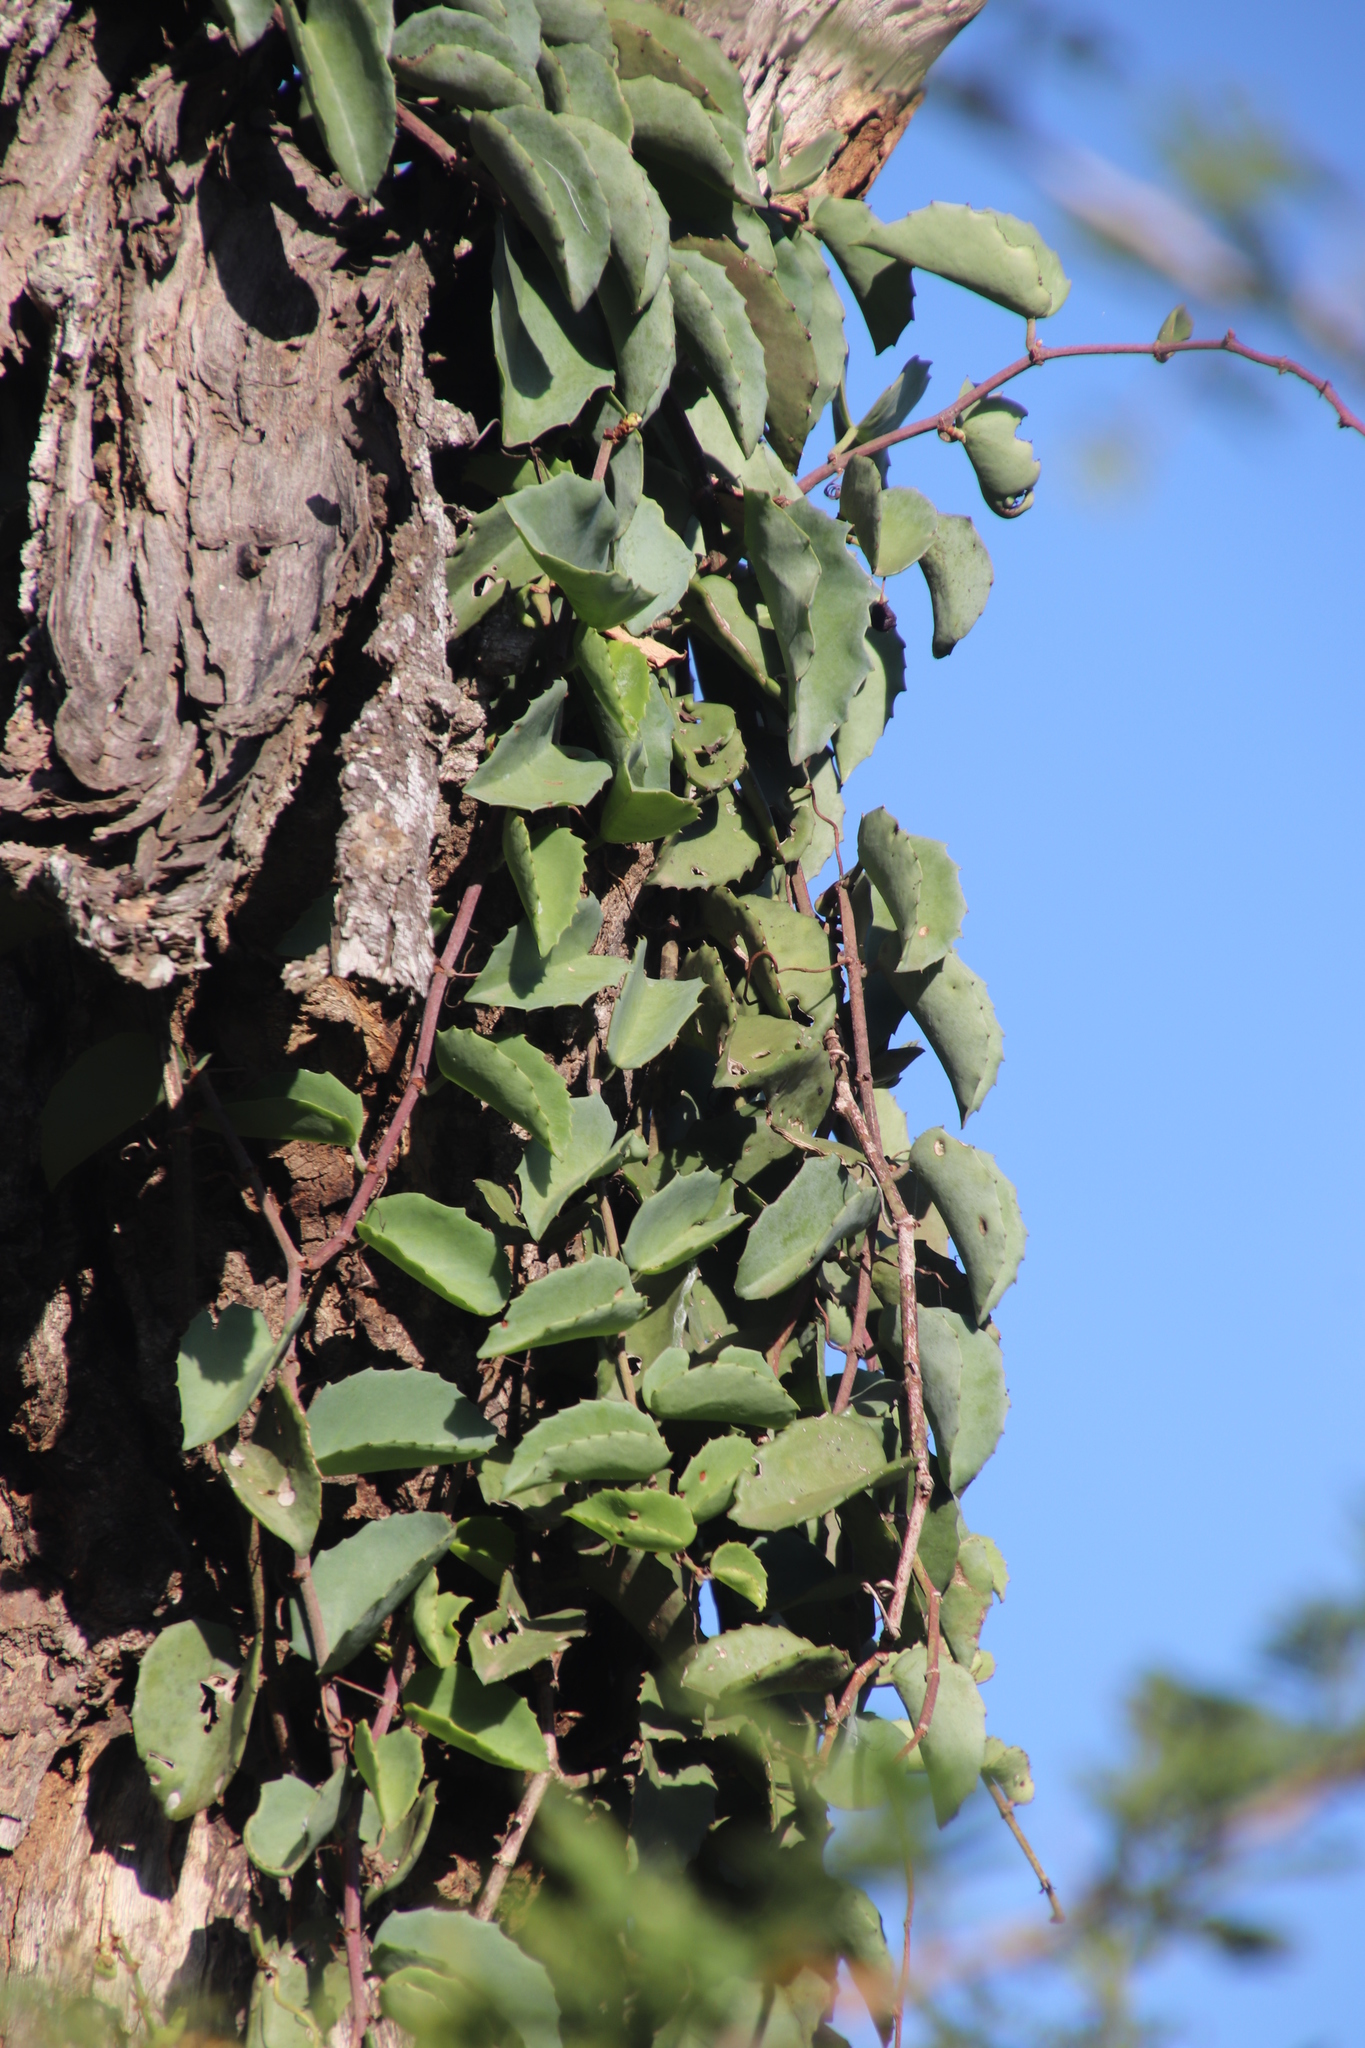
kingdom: Plantae
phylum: Tracheophyta
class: Magnoliopsida
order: Vitales
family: Vitaceae
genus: Cissus
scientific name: Cissus rotundifolia
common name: Arabian wax cissus
